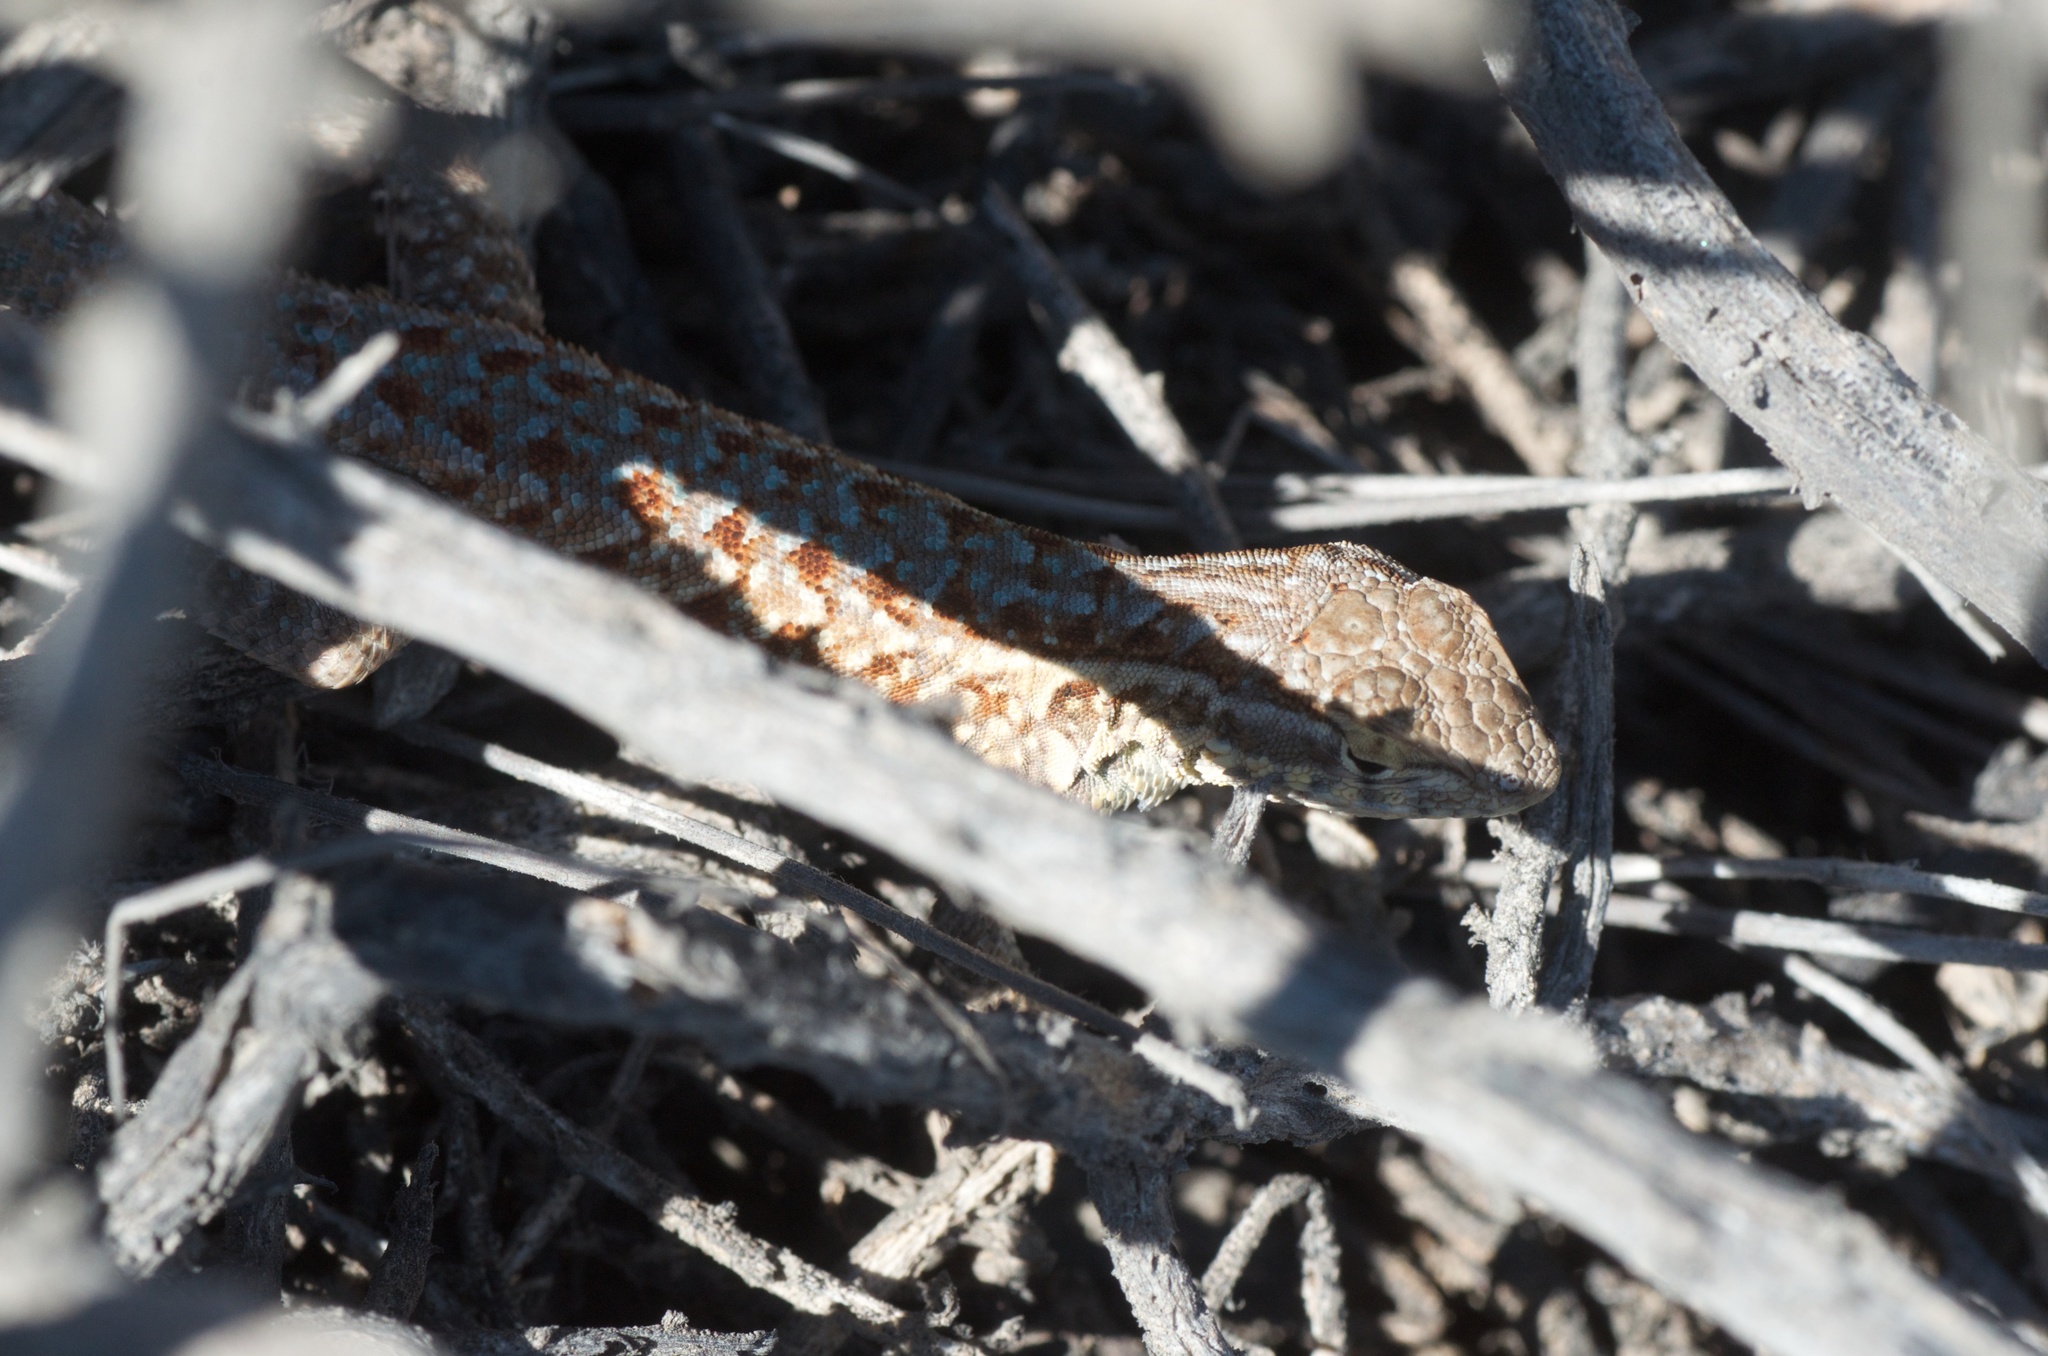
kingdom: Animalia
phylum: Chordata
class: Squamata
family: Phrynosomatidae
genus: Uta
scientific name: Uta stansburiana
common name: Side-blotched lizard
